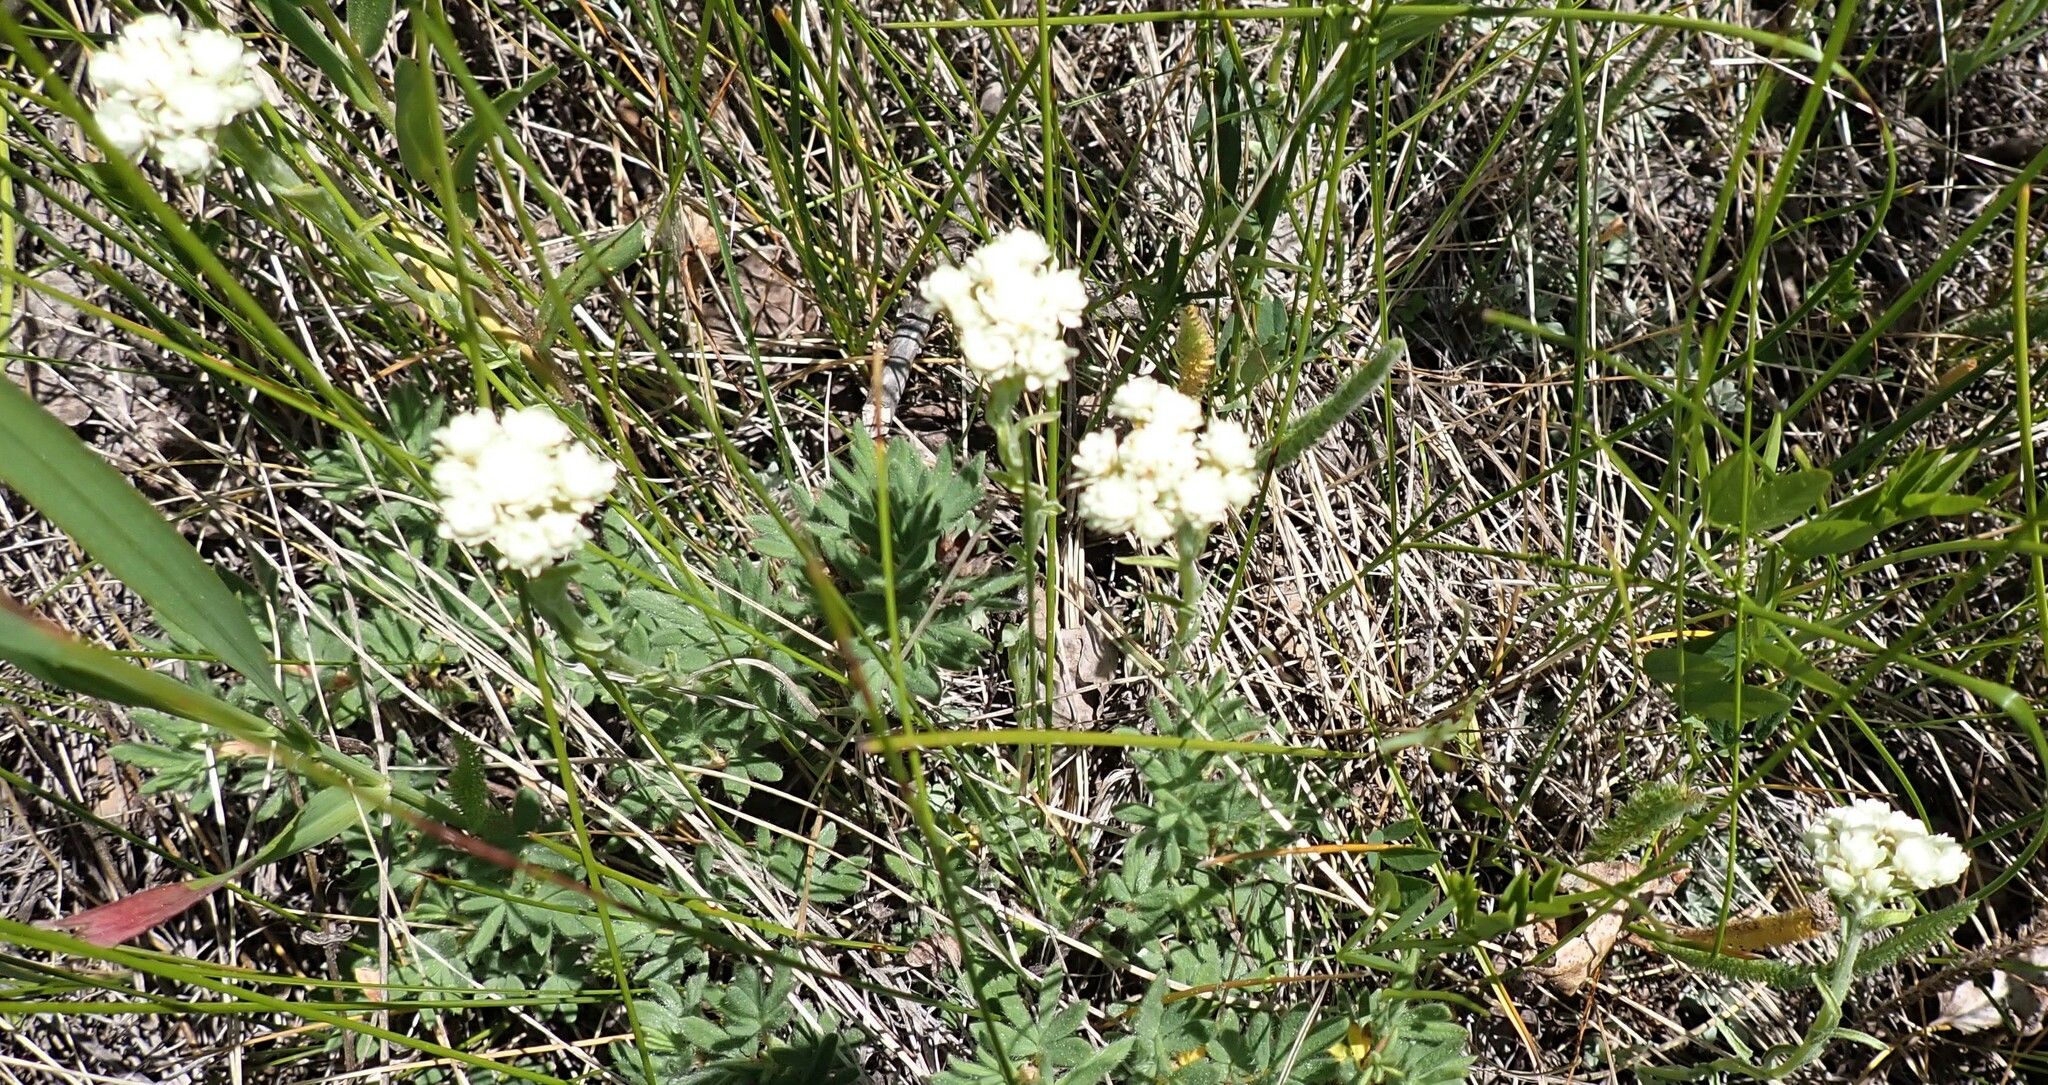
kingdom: Plantae
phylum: Tracheophyta
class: Magnoliopsida
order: Asterales
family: Asteraceae
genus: Antennaria
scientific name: Antennaria anaphaloides
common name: Tall pussytoes
